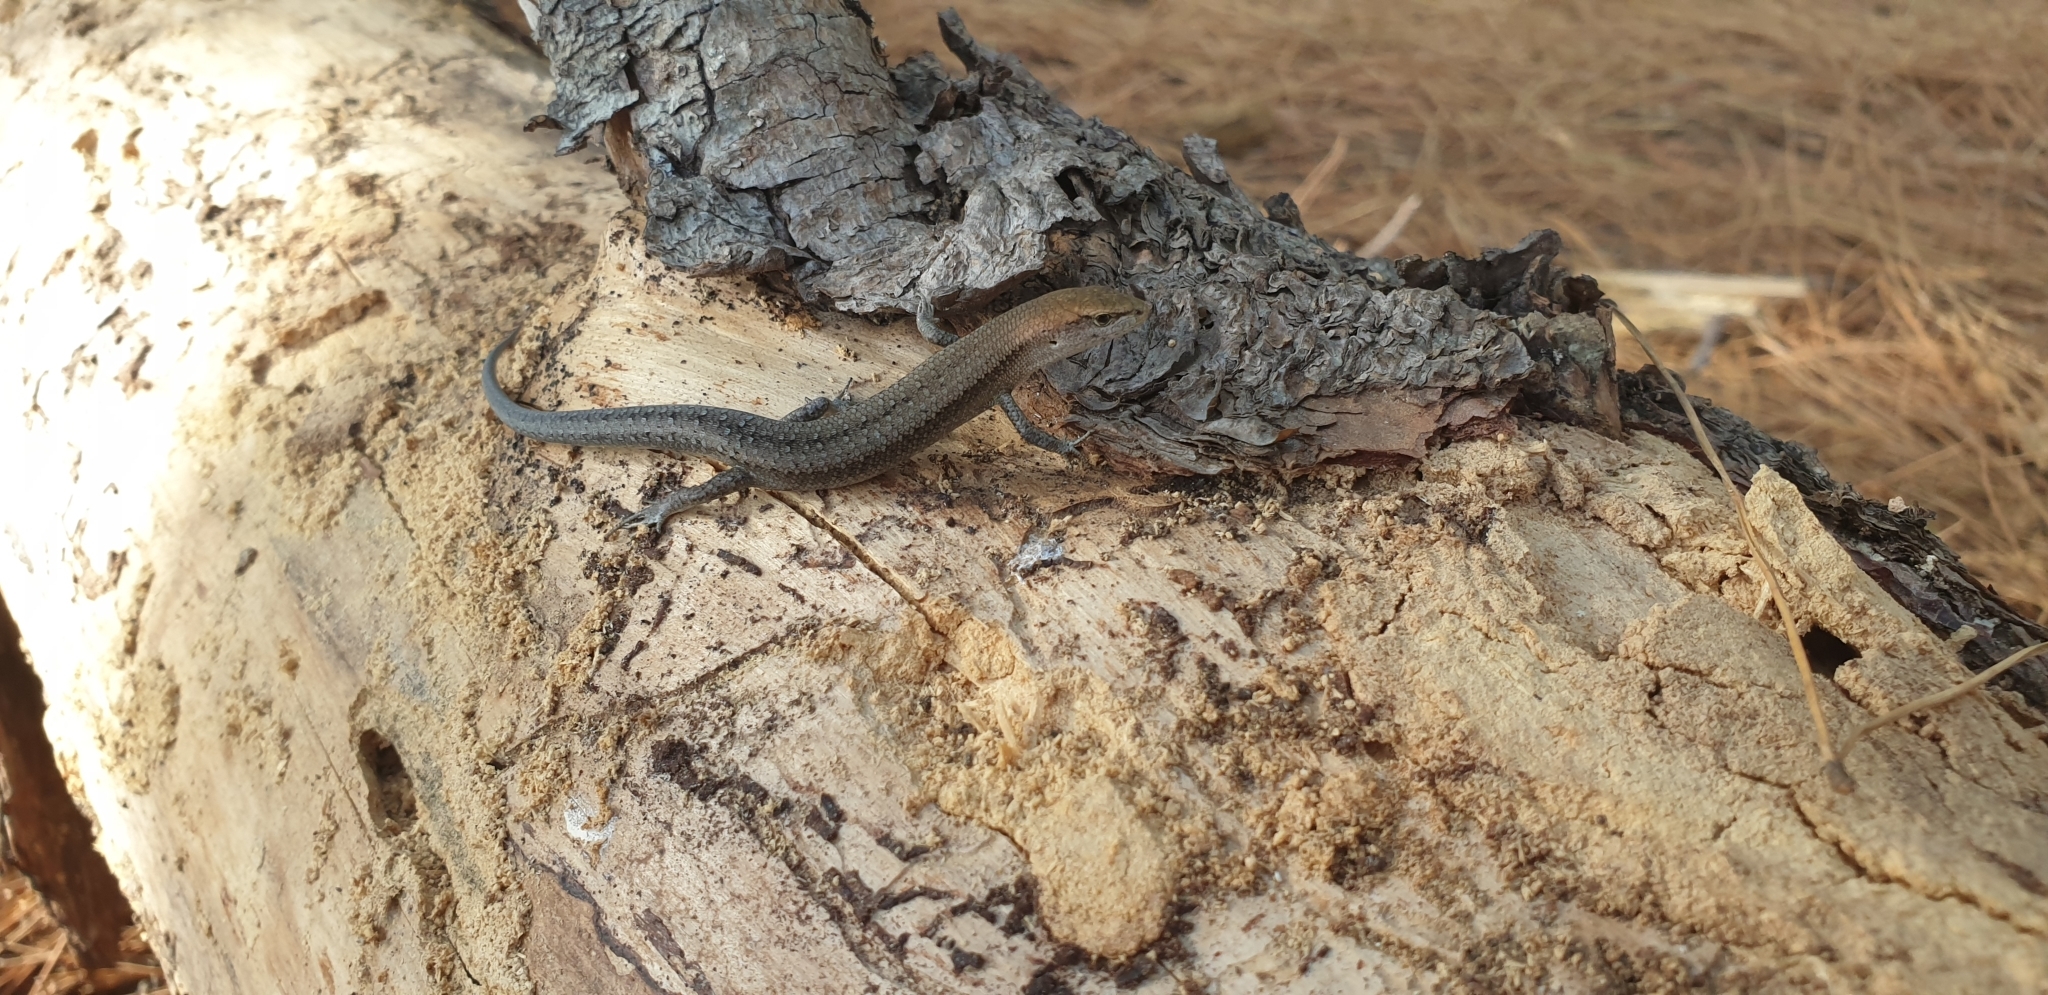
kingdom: Animalia
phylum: Chordata
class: Squamata
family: Scincidae
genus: Lampropholis
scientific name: Lampropholis guichenoti
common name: Garden skink
